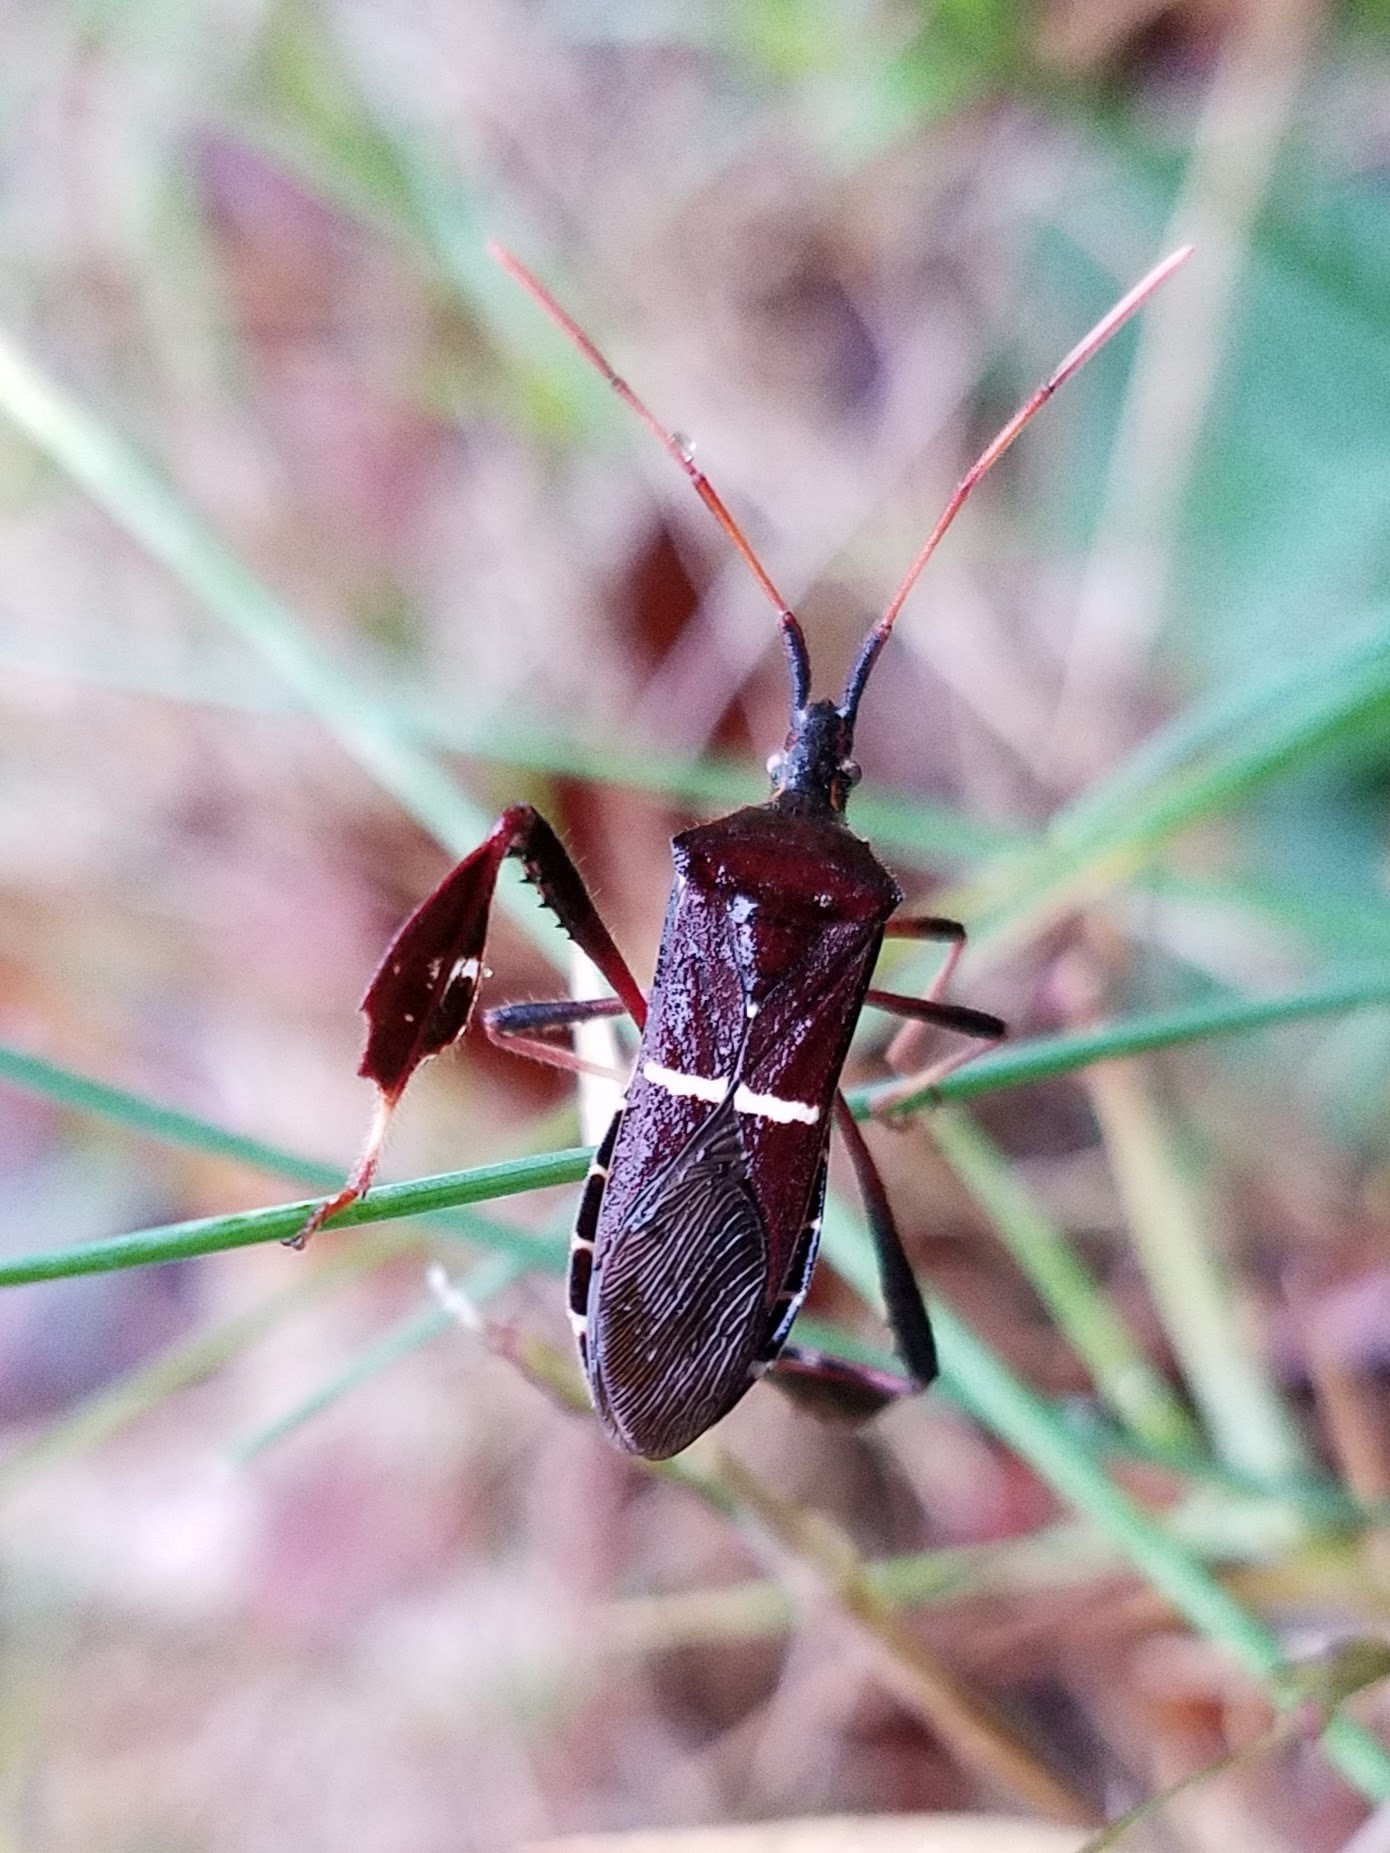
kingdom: Animalia
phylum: Arthropoda
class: Insecta
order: Hemiptera
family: Coreidae
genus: Leptoglossus
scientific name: Leptoglossus phyllopus
